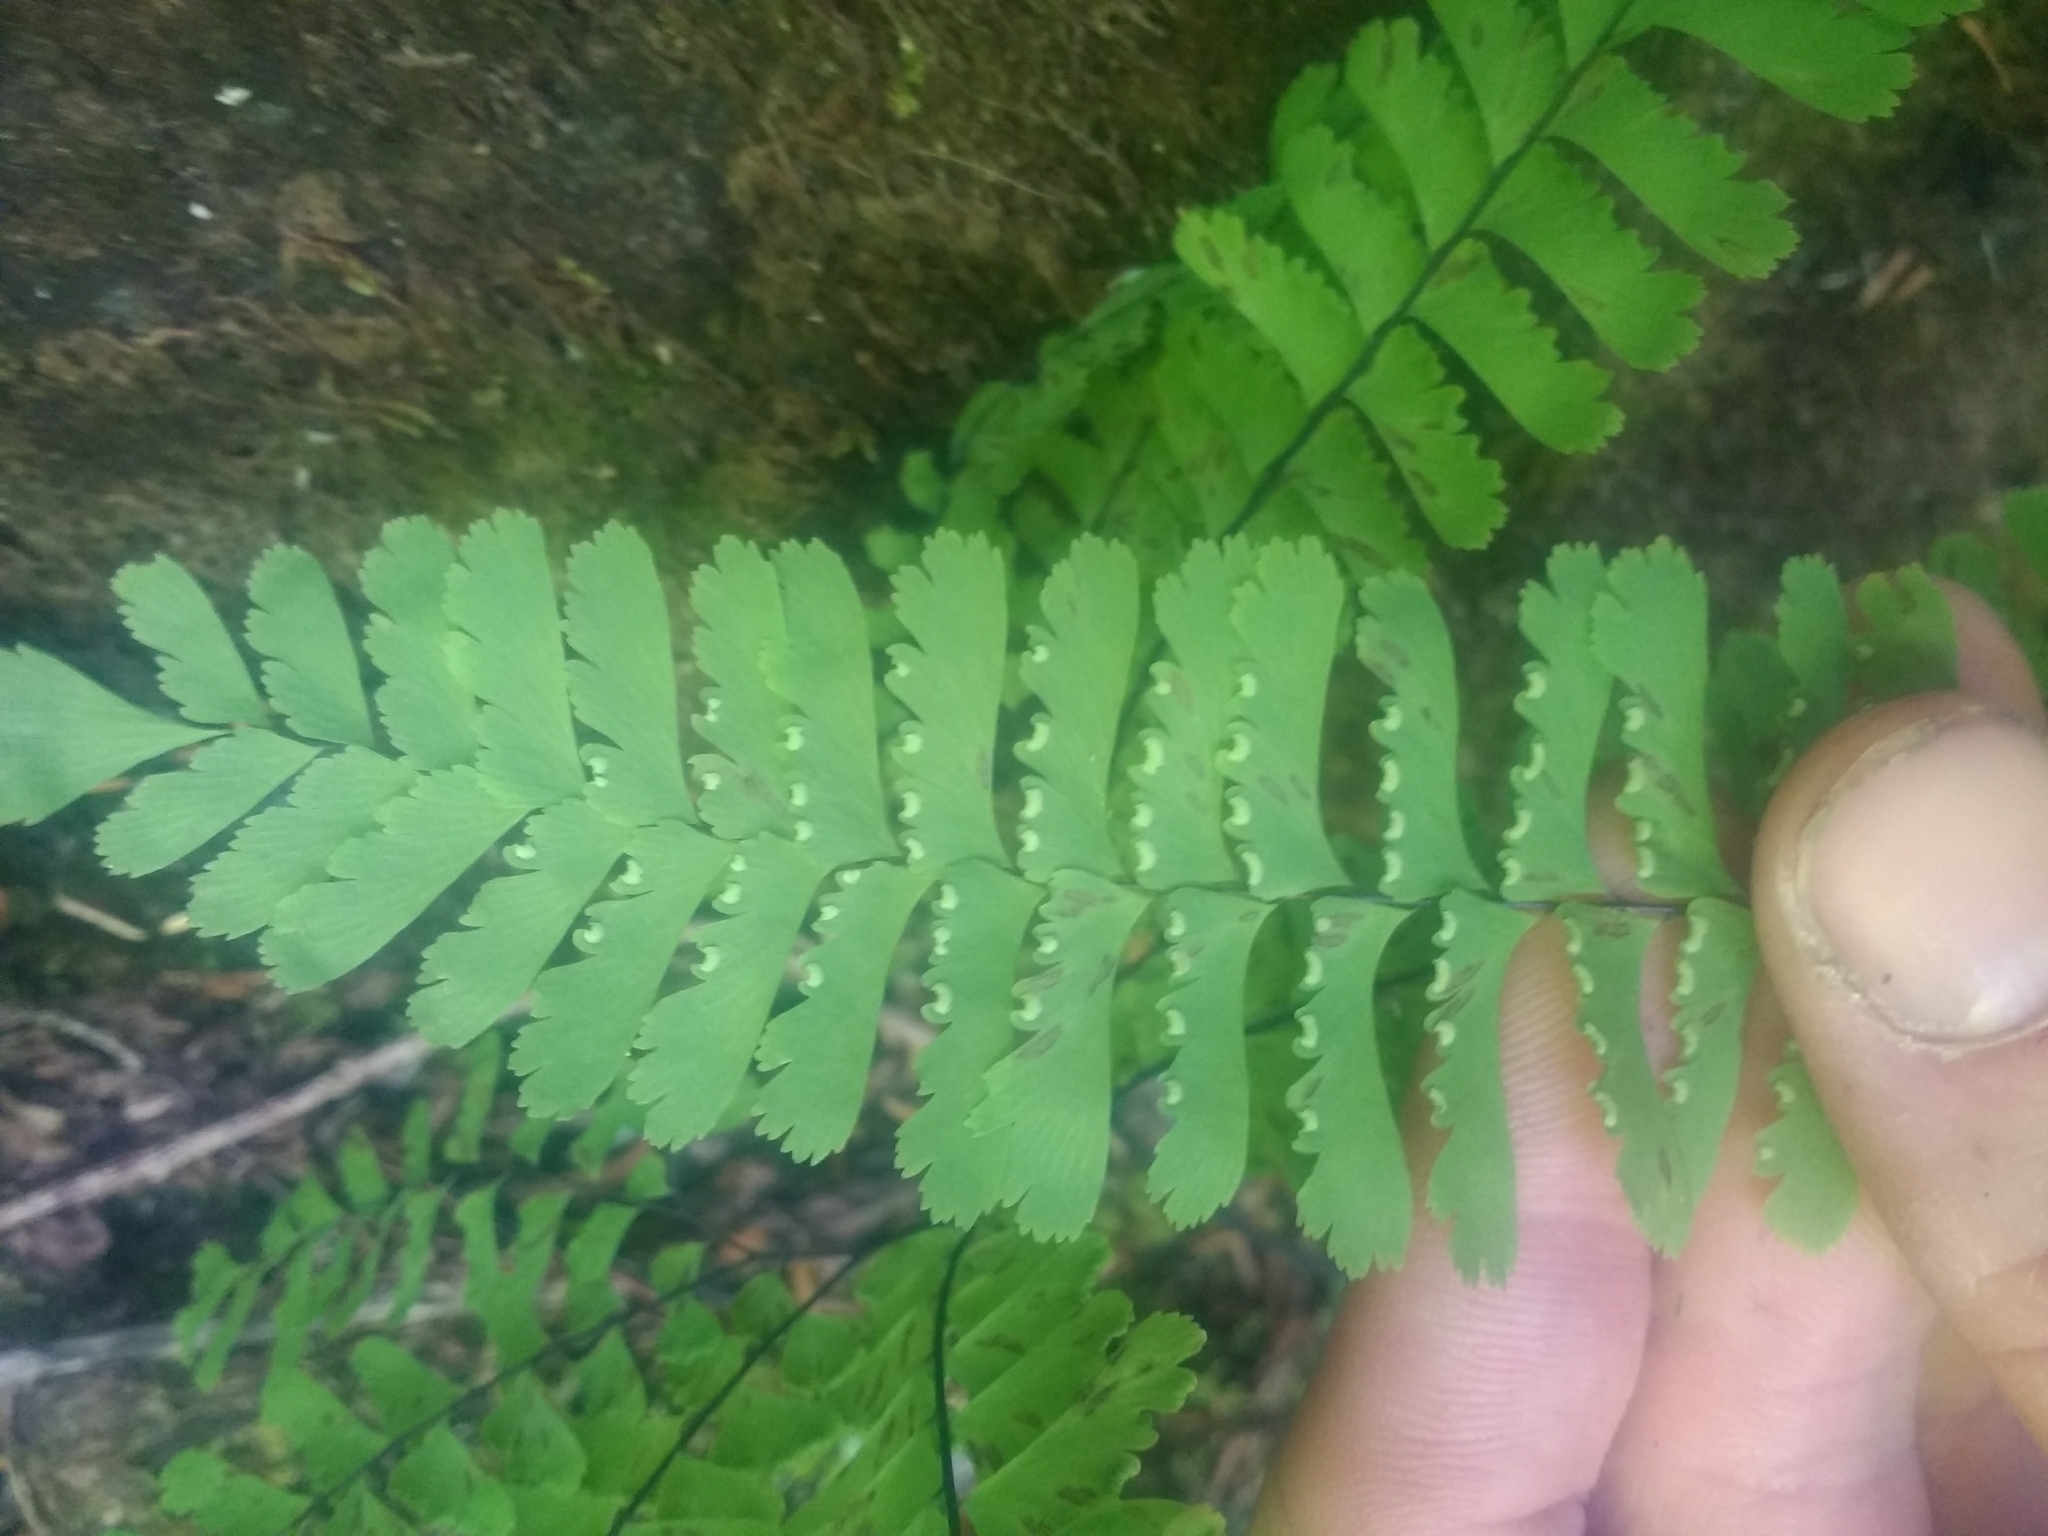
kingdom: Plantae
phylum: Tracheophyta
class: Polypodiopsida
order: Polypodiales
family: Pteridaceae
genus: Adiantum
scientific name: Adiantum aleuticum
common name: Aleutian maidenhair fern
